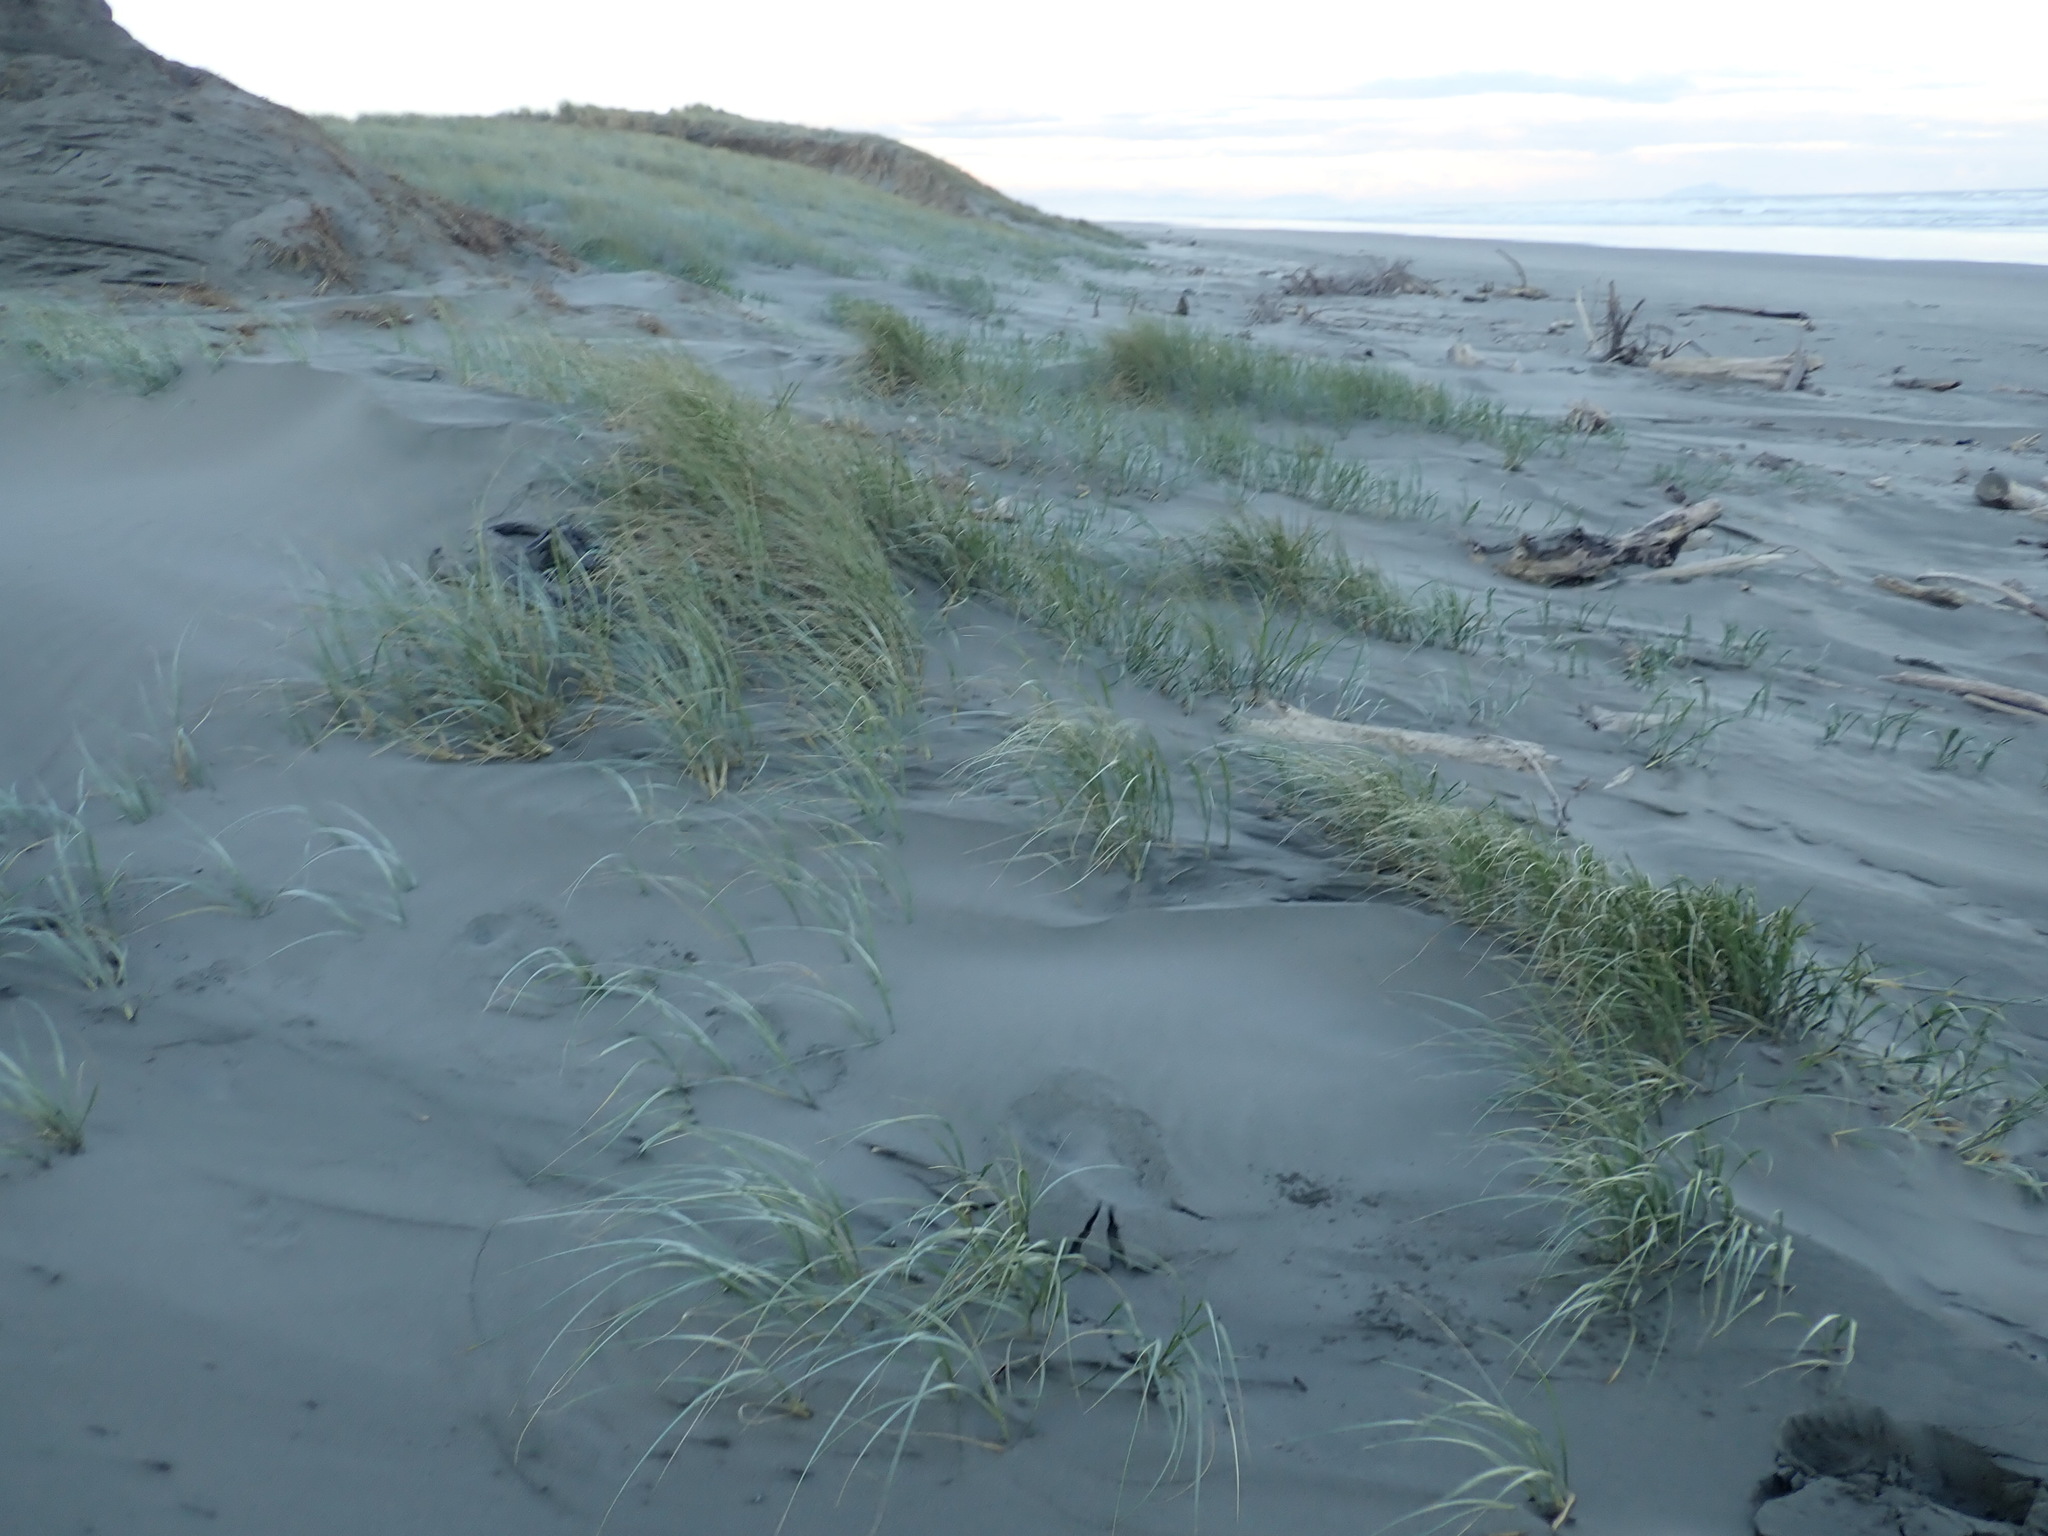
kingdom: Plantae
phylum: Tracheophyta
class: Liliopsida
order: Poales
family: Poaceae
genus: Spinifex
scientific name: Spinifex sericeus
